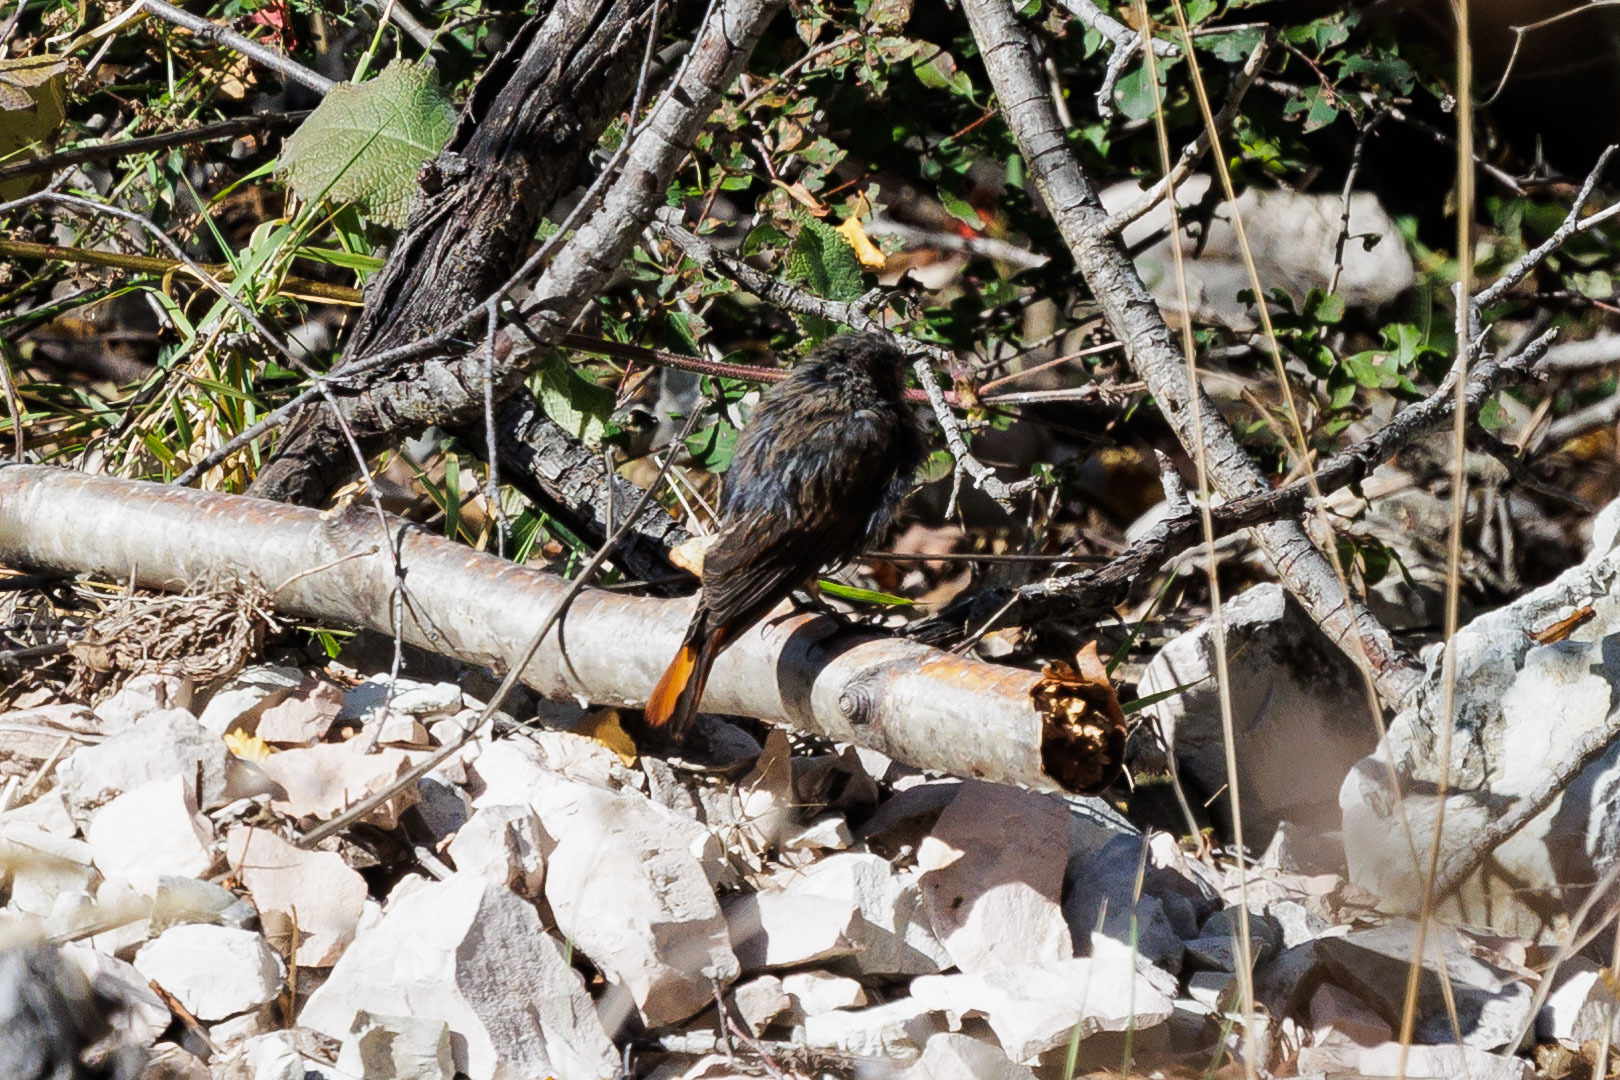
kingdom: Animalia
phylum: Chordata
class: Aves
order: Passeriformes
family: Muscicapidae
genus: Phoenicurus
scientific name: Phoenicurus ochruros
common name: Black redstart
